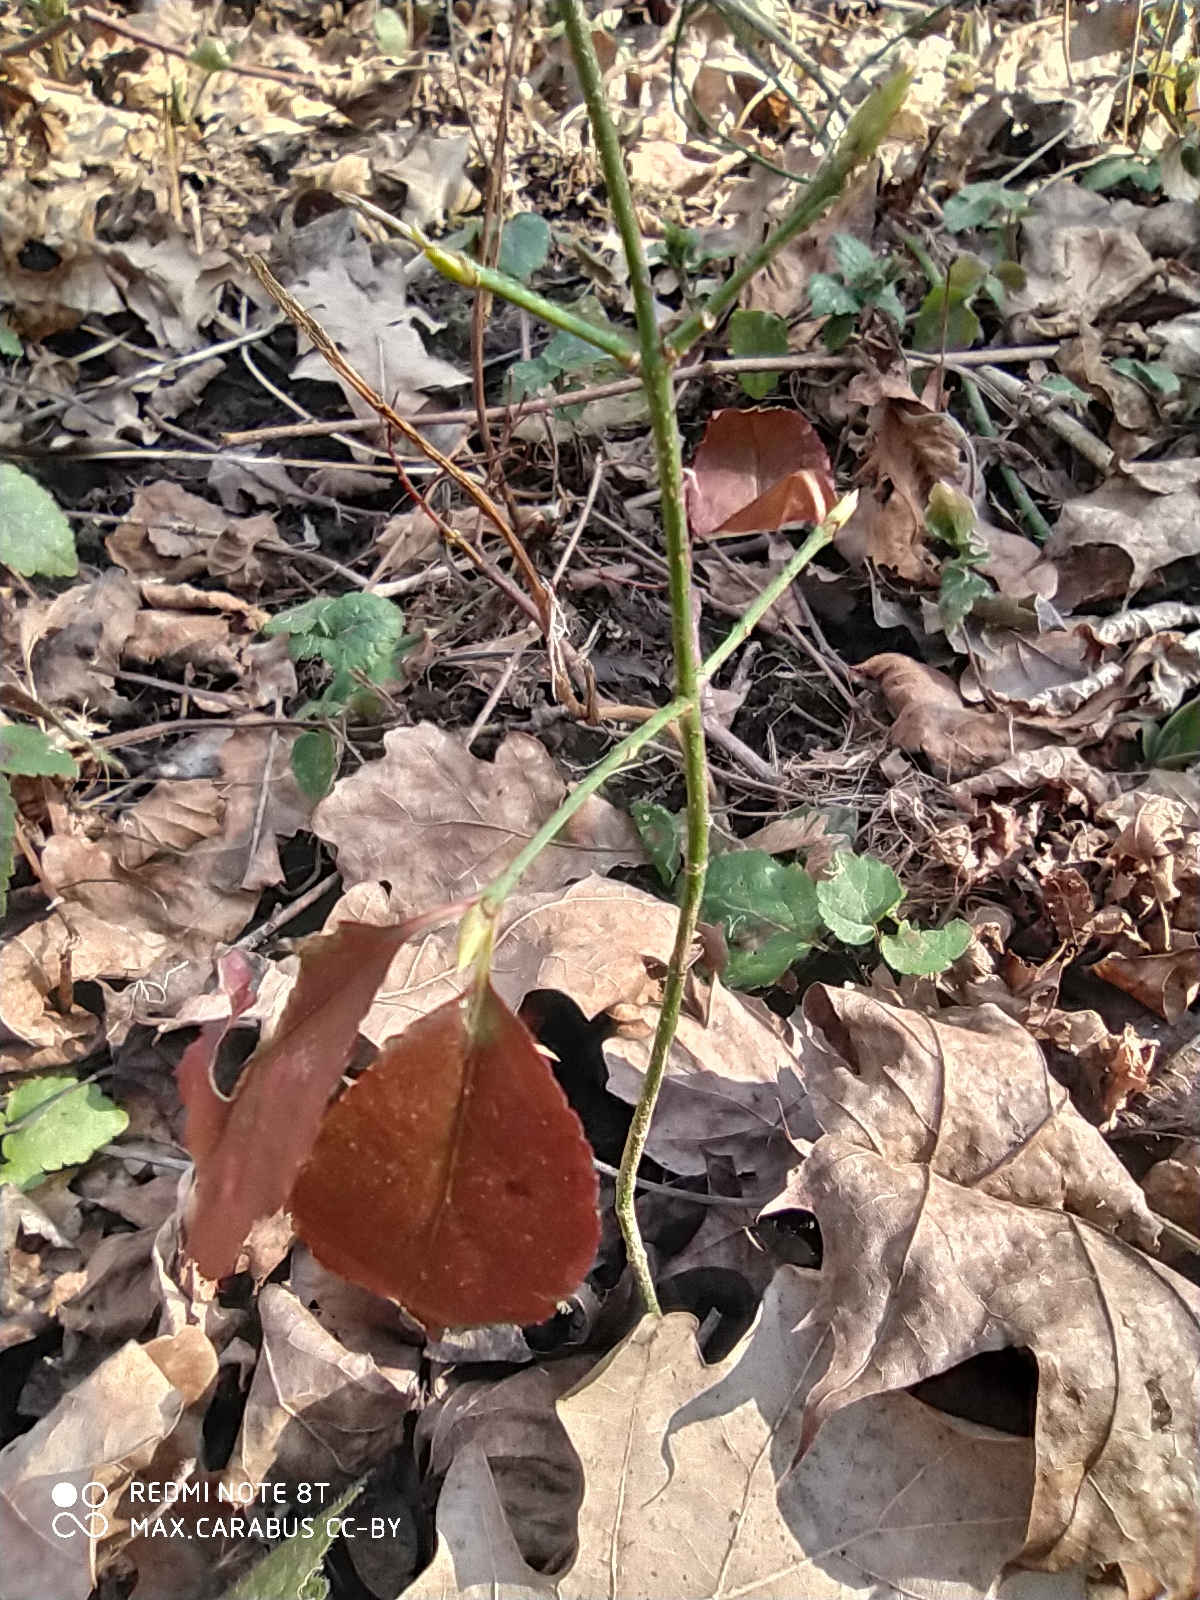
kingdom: Plantae
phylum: Tracheophyta
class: Magnoliopsida
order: Celastrales
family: Celastraceae
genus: Euonymus
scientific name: Euonymus verrucosus
